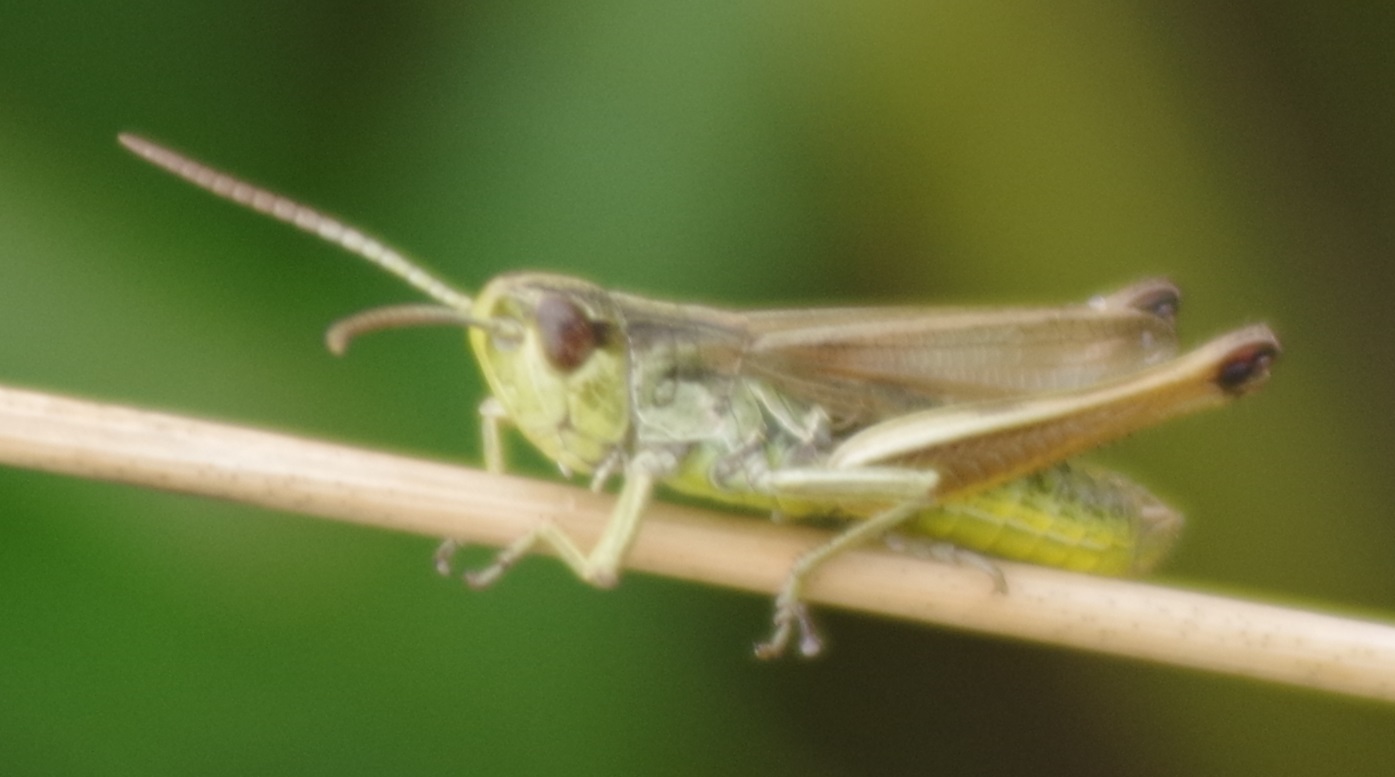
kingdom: Animalia
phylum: Arthropoda
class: Insecta
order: Orthoptera
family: Acrididae
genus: Pseudochorthippus
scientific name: Pseudochorthippus parallelus
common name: Meadow grasshopper
